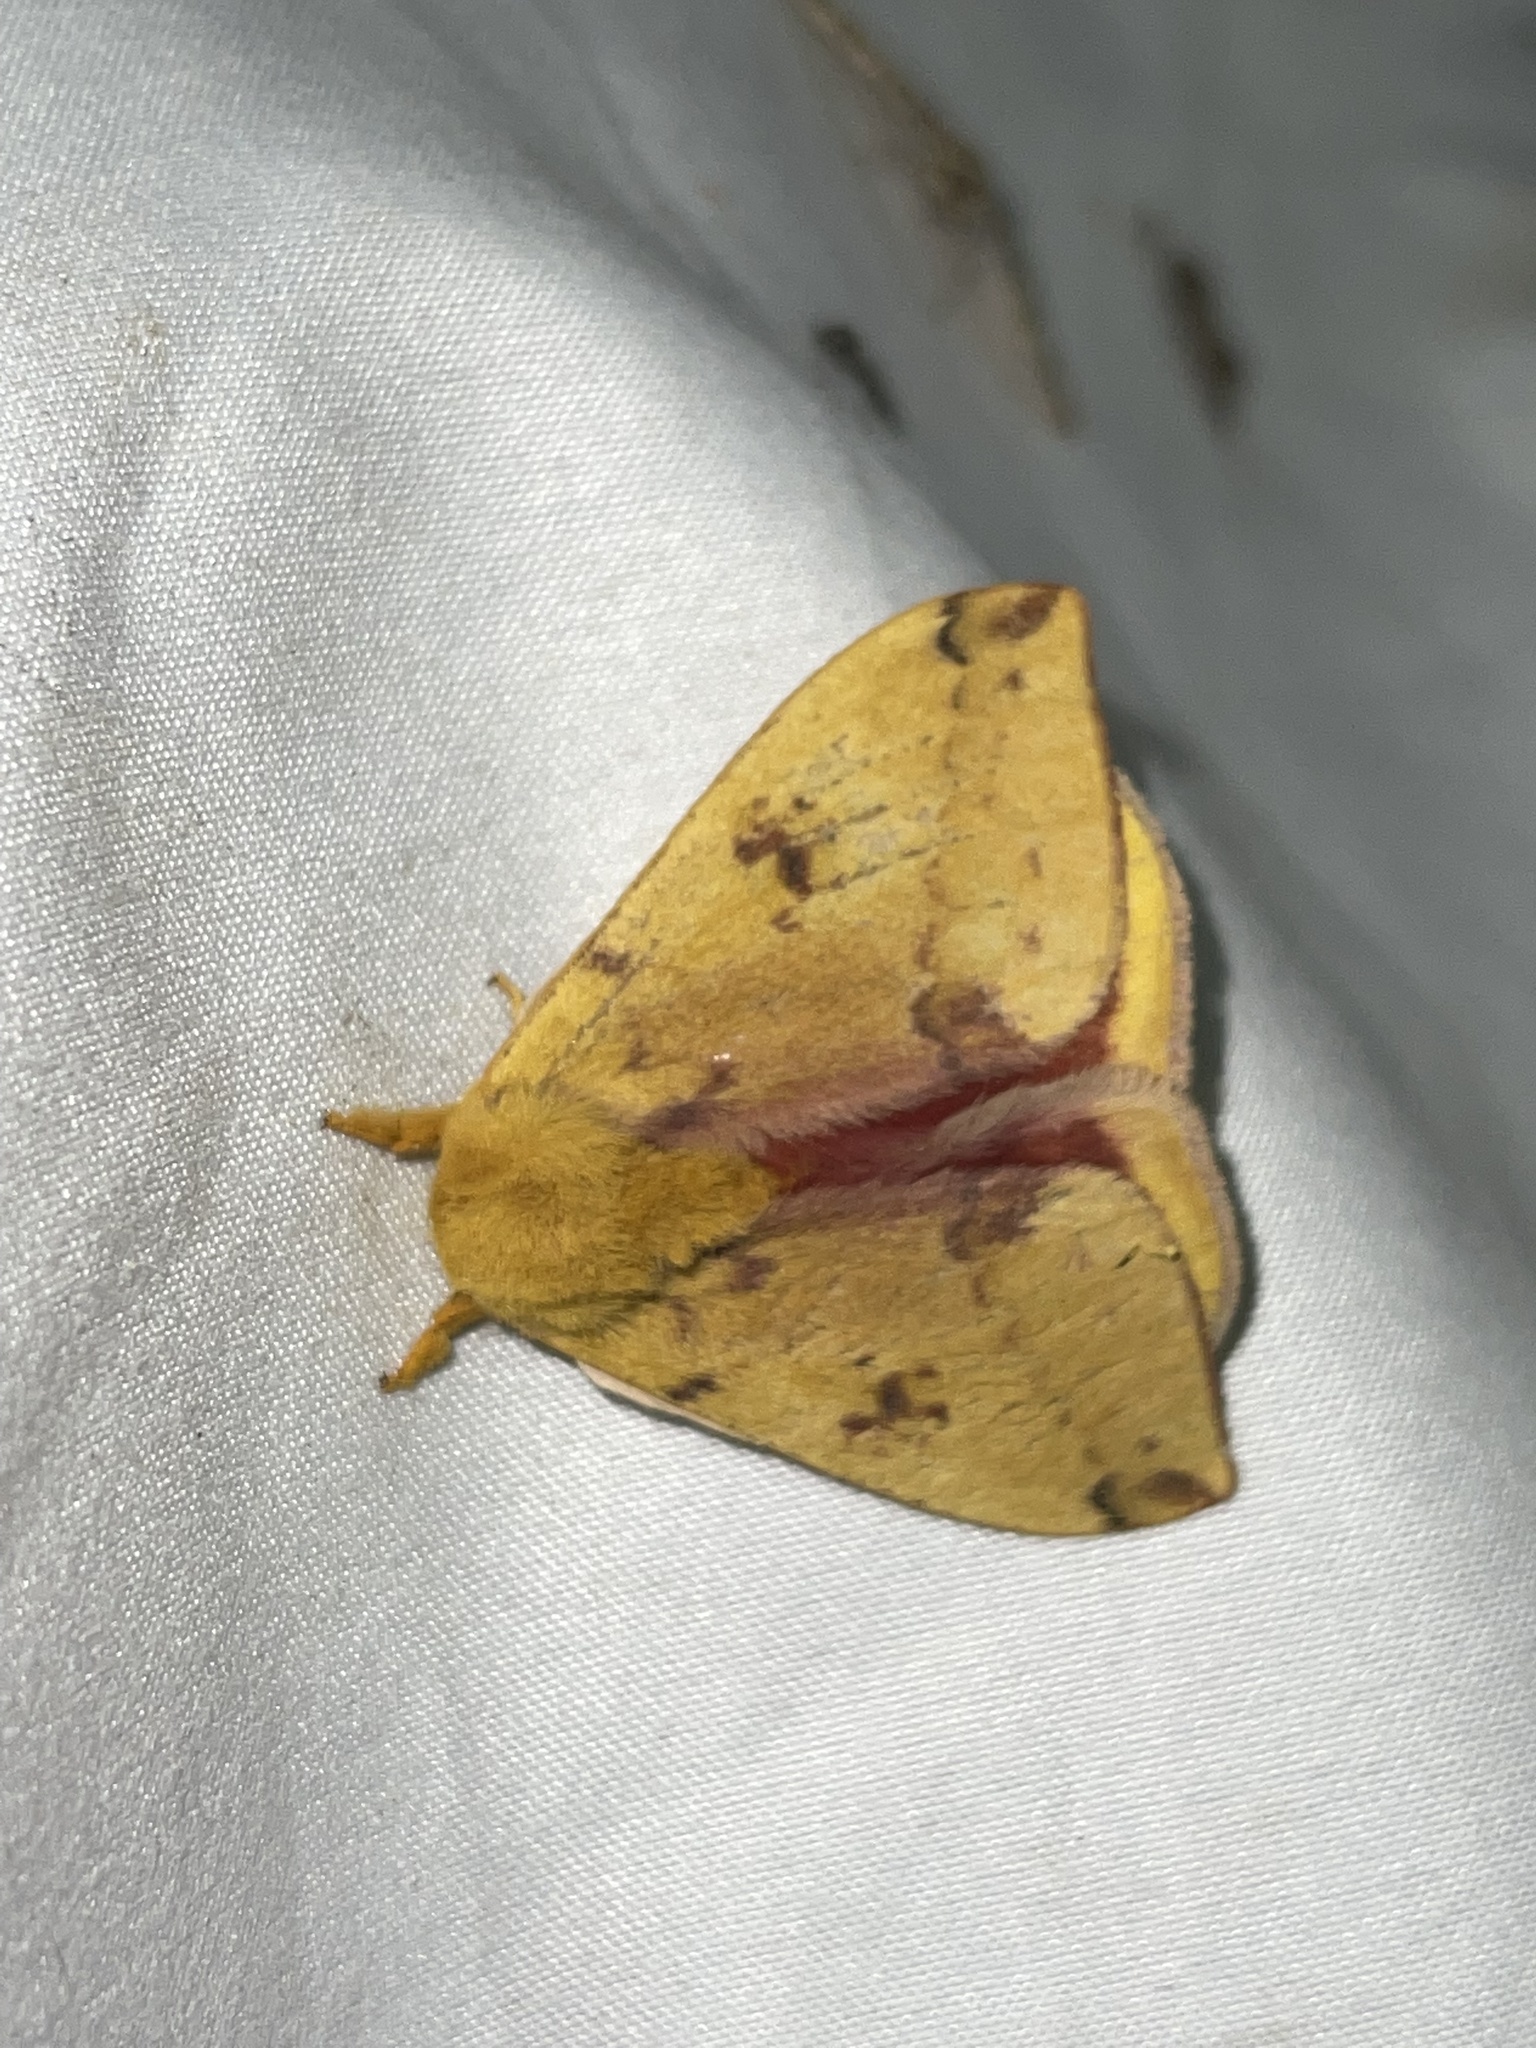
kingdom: Animalia
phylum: Arthropoda
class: Insecta
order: Lepidoptera
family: Saturniidae
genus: Automeris
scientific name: Automeris io
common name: Io moth
